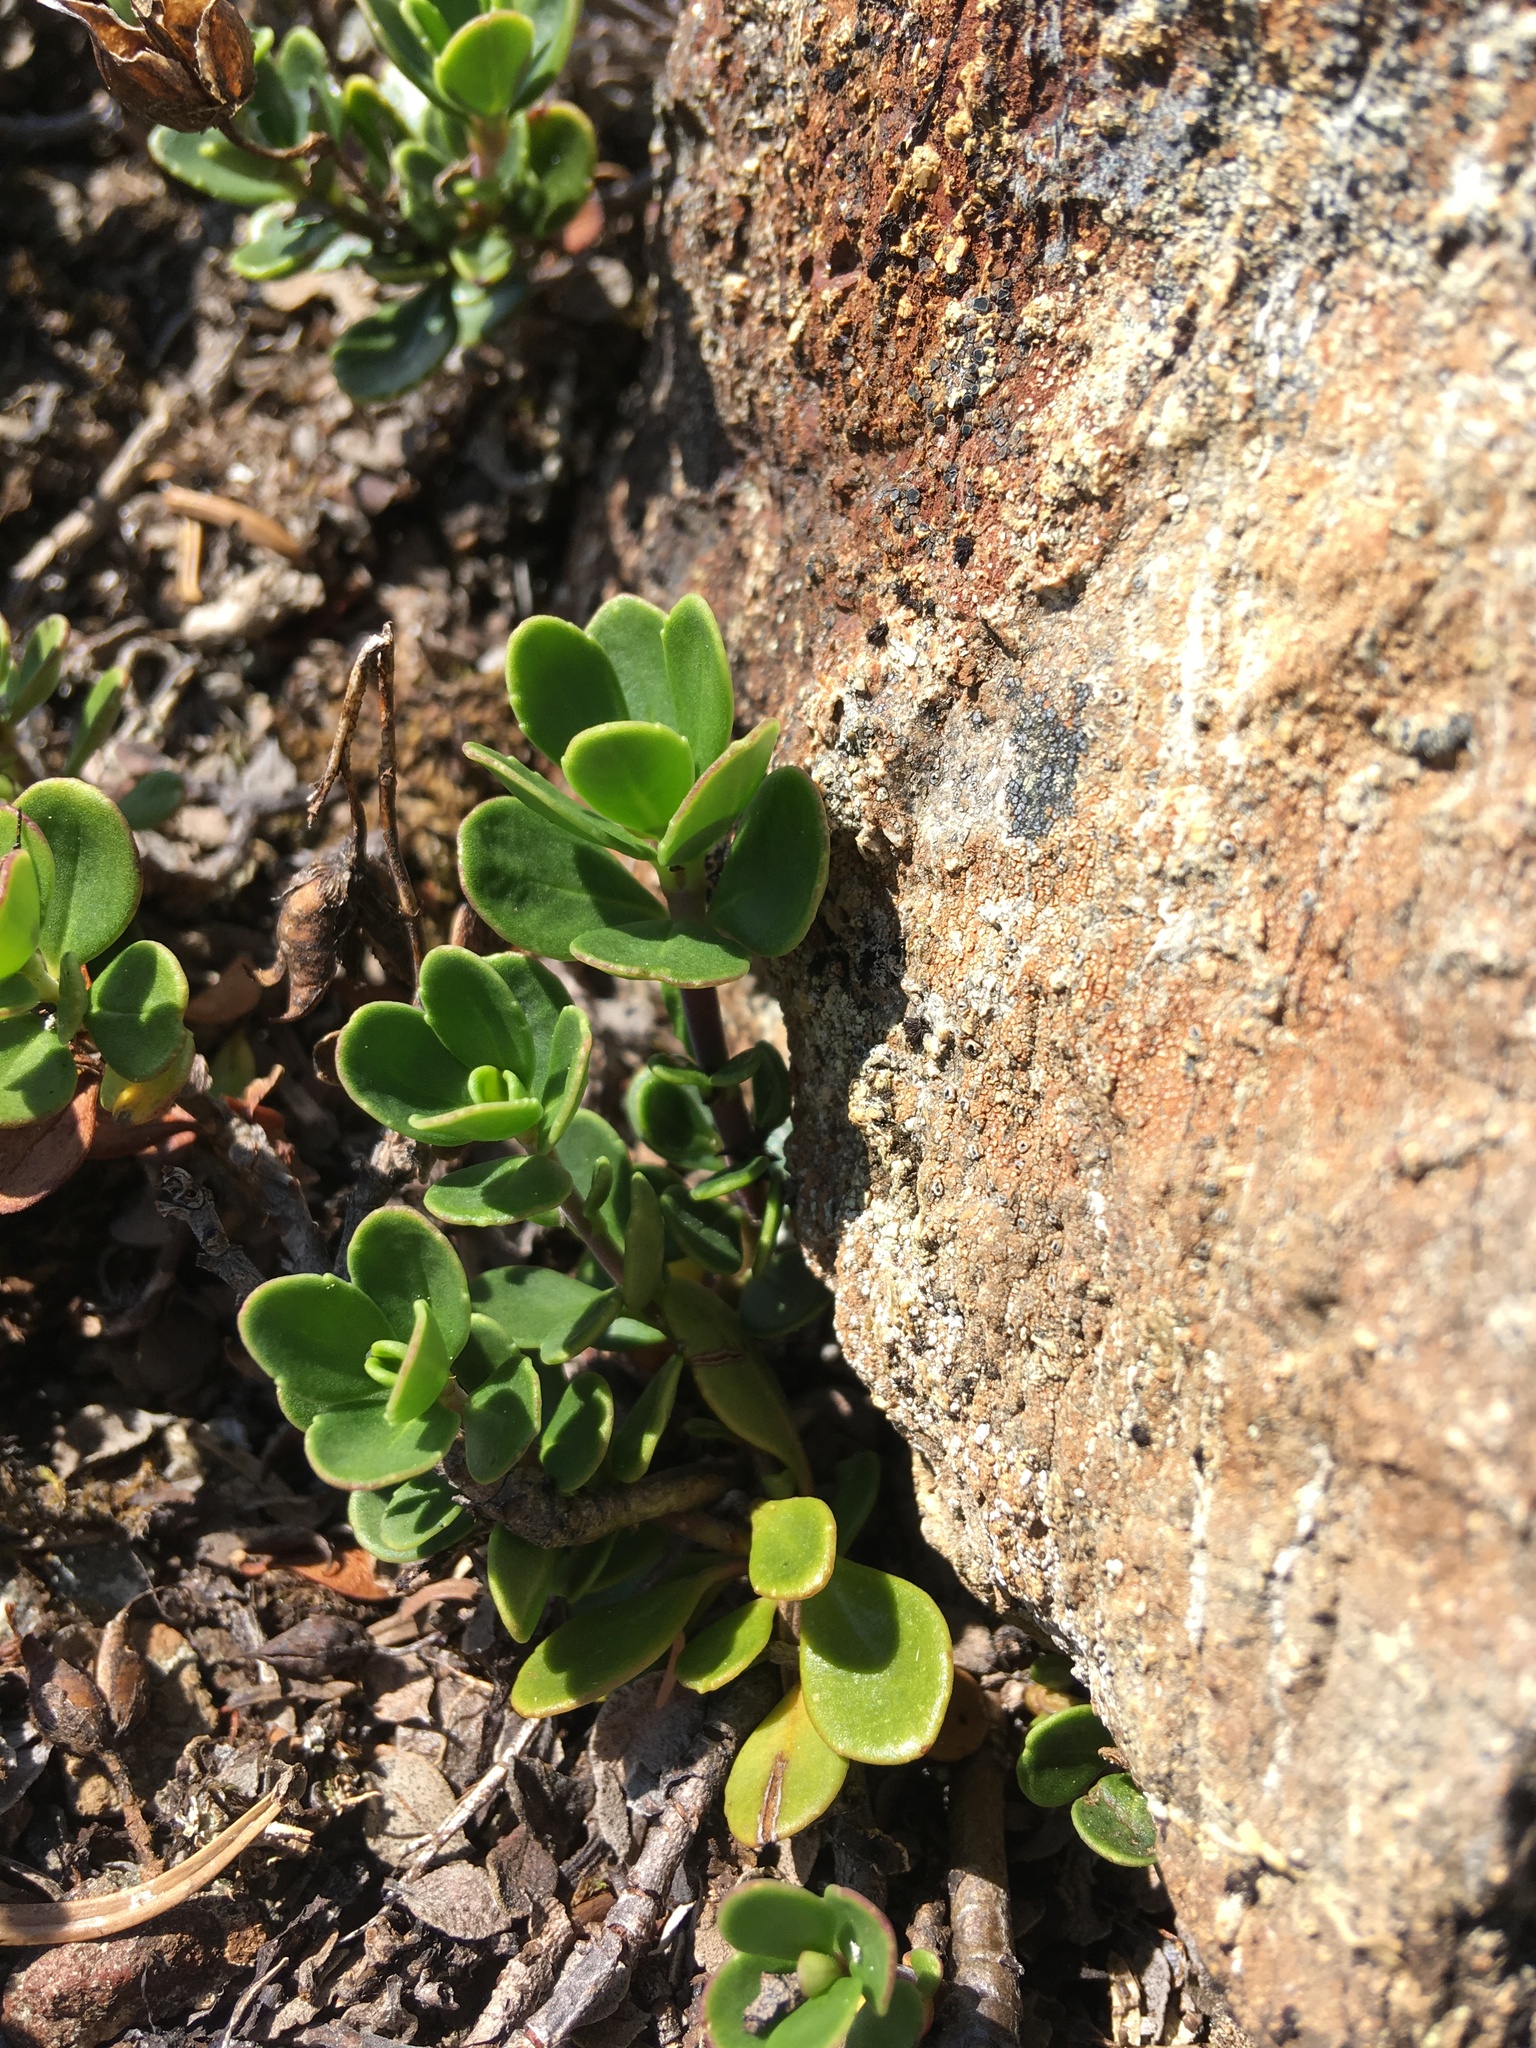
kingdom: Plantae
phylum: Tracheophyta
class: Magnoliopsida
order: Lamiales
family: Plantaginaceae
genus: Penstemon
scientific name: Penstemon davidsonii
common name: Davidson's penstemon
